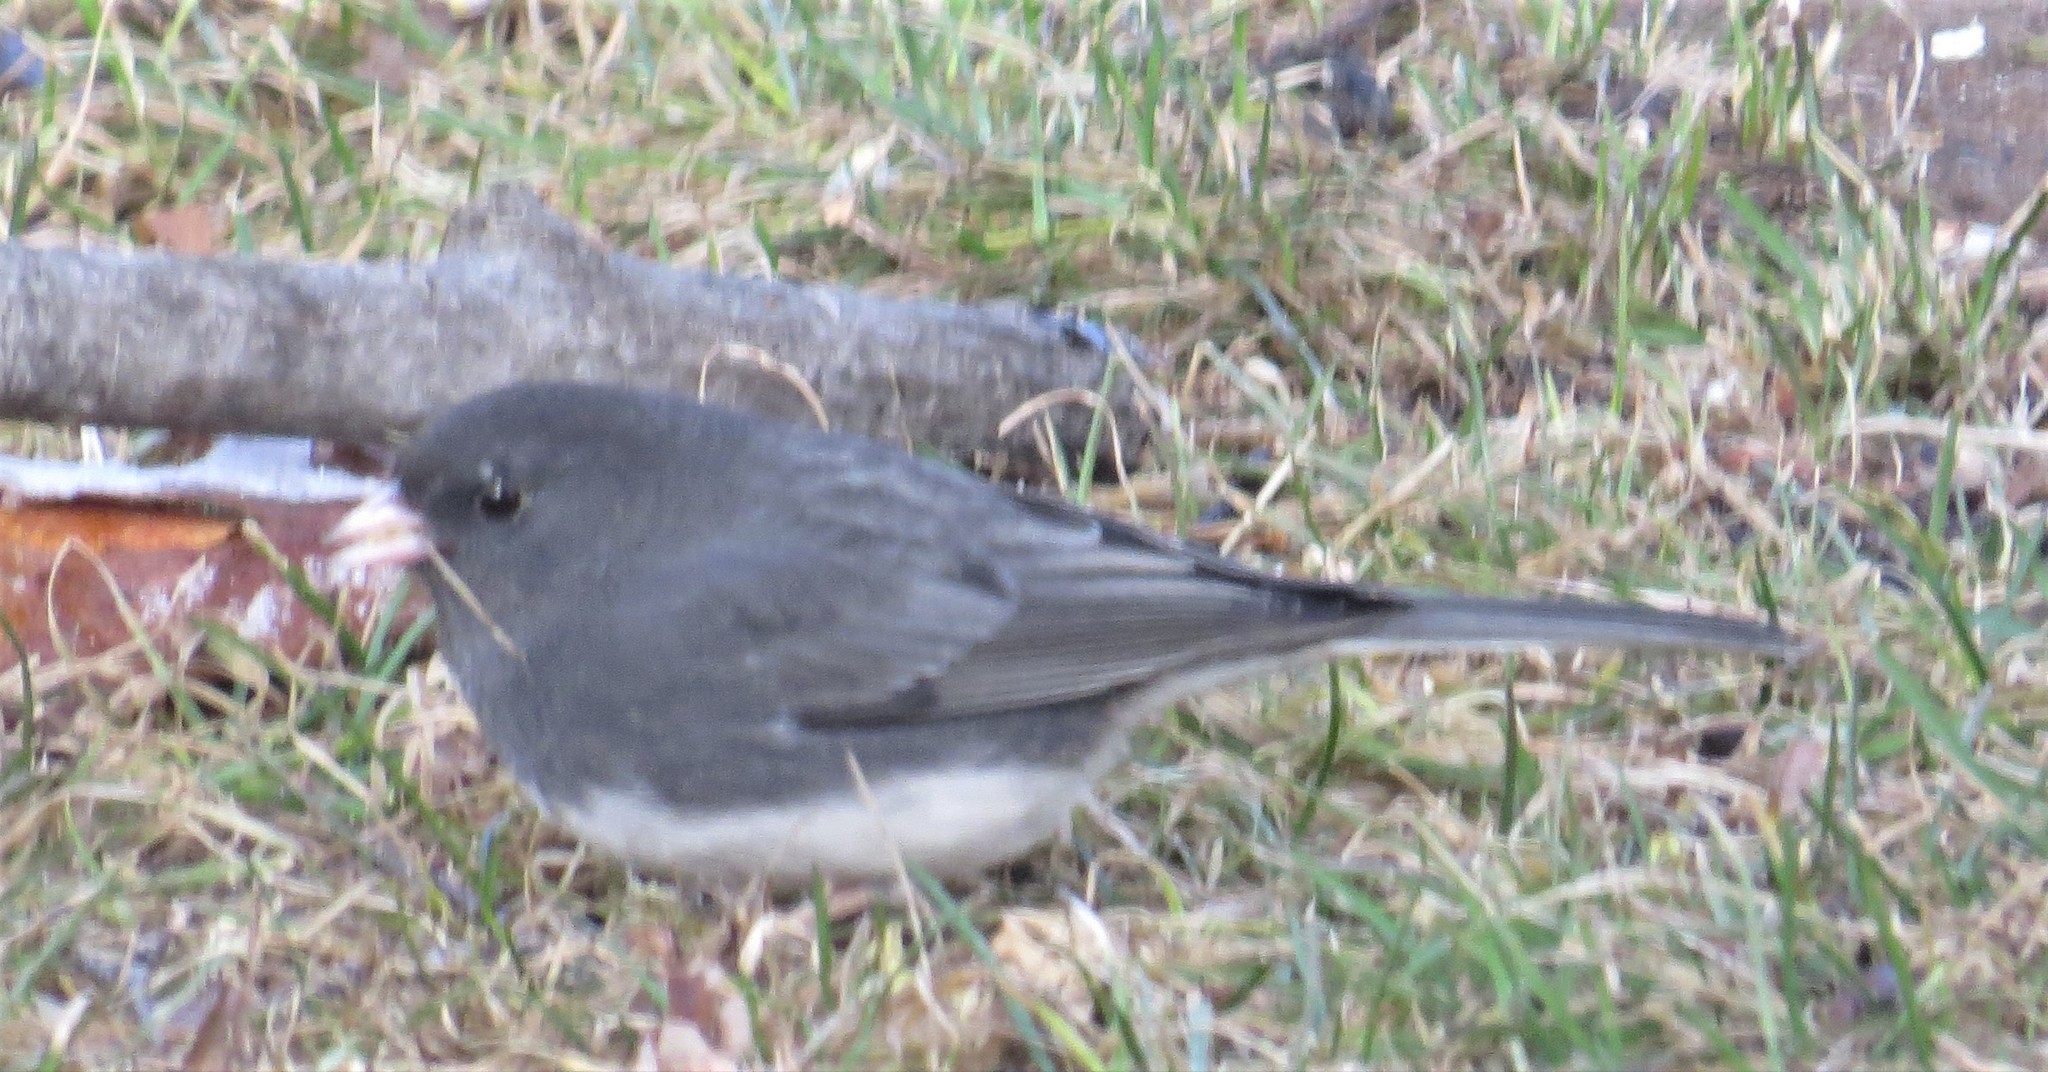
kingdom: Animalia
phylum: Chordata
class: Aves
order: Passeriformes
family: Passerellidae
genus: Junco
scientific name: Junco hyemalis
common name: Dark-eyed junco
